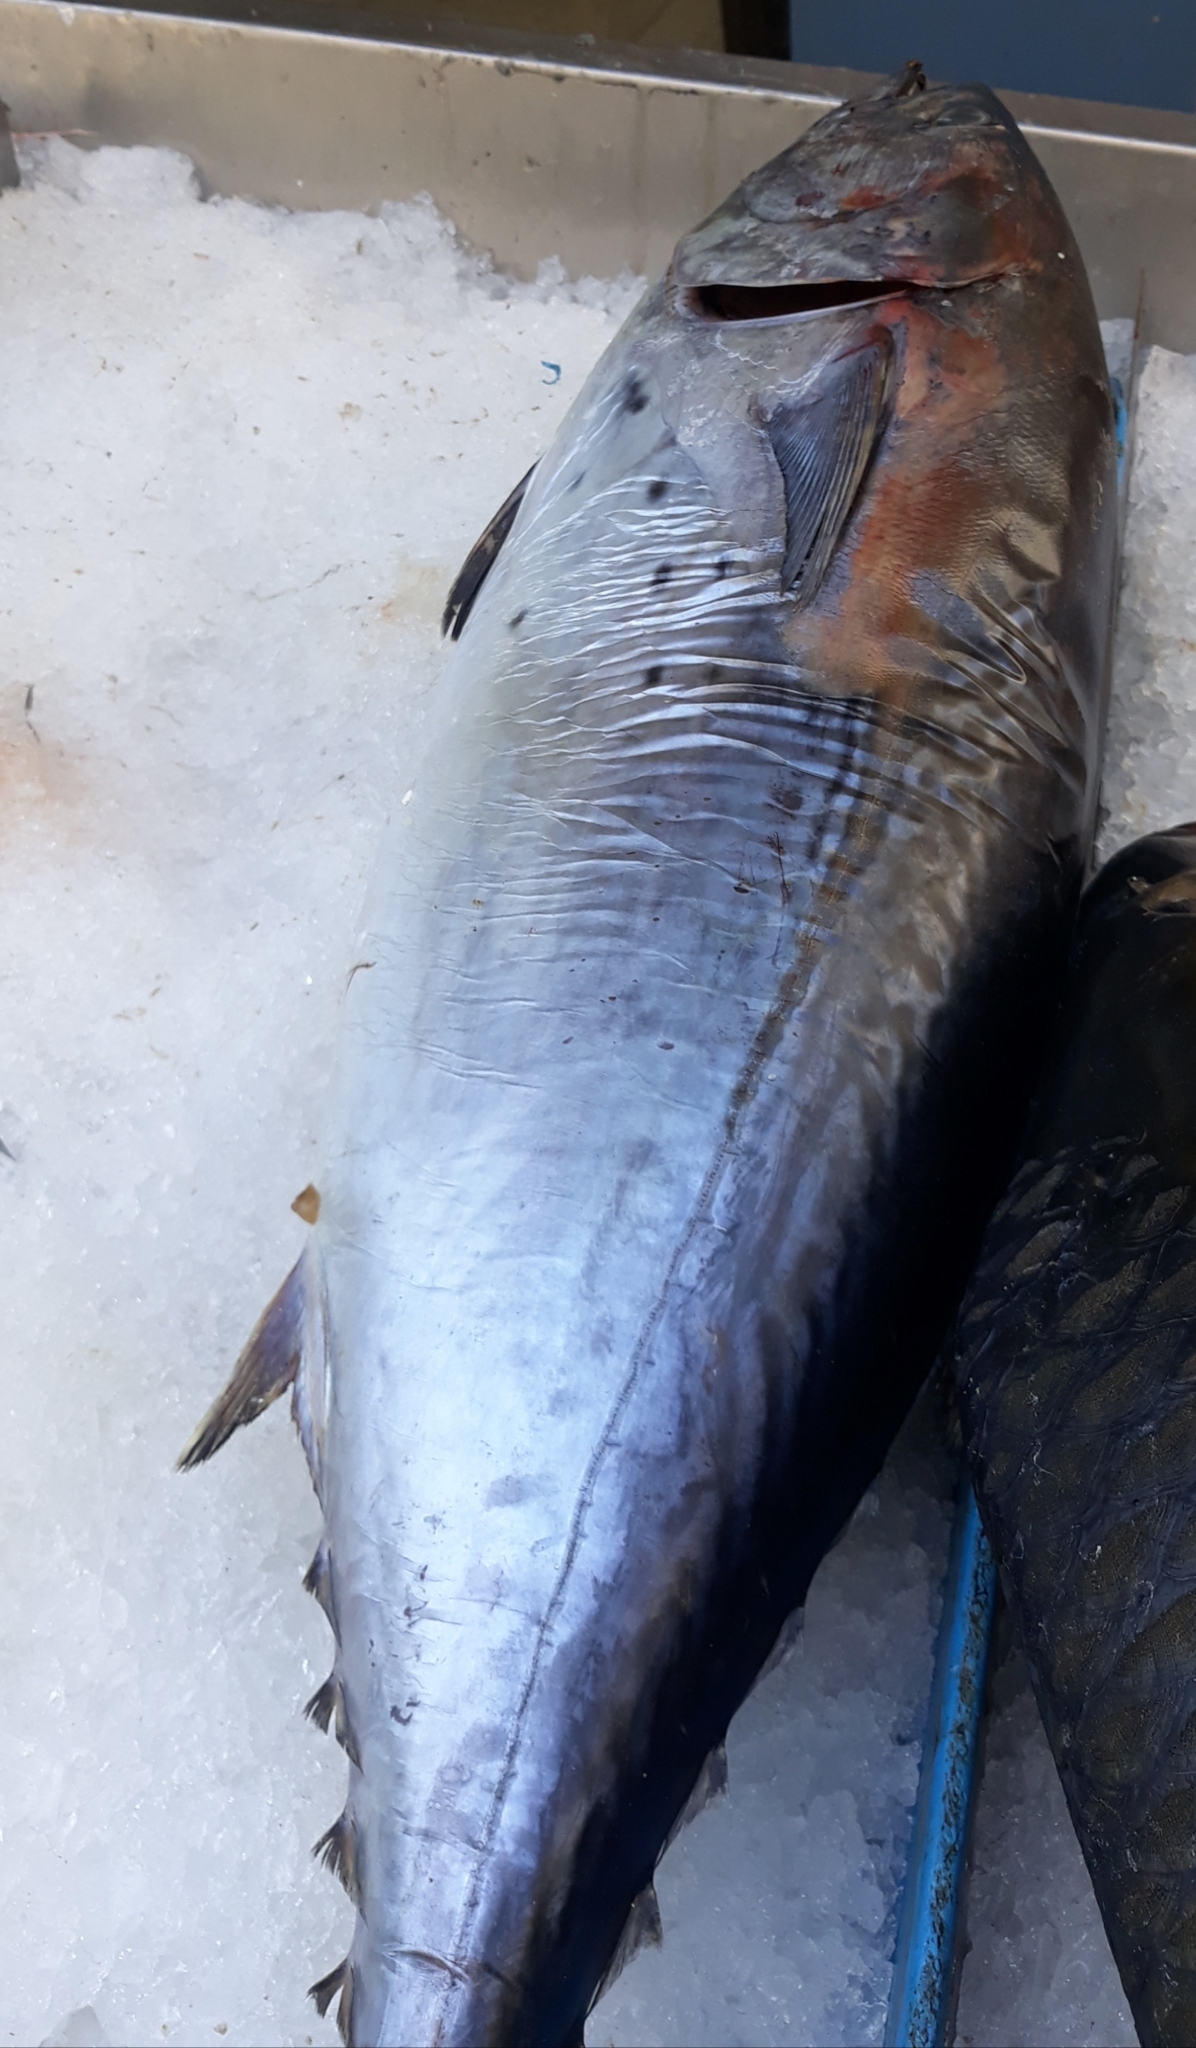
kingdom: Animalia
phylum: Chordata
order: Perciformes
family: Scombridae
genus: Euthynnus
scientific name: Euthynnus alletteratus
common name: Little tunny
